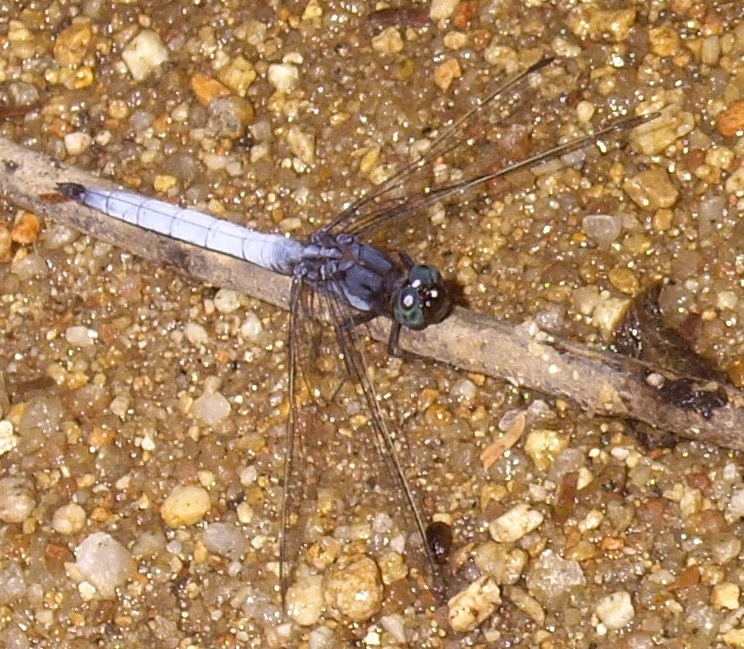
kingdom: Animalia
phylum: Arthropoda
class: Insecta
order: Odonata
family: Libellulidae
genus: Orthetrum
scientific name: Orthetrum glaucum
